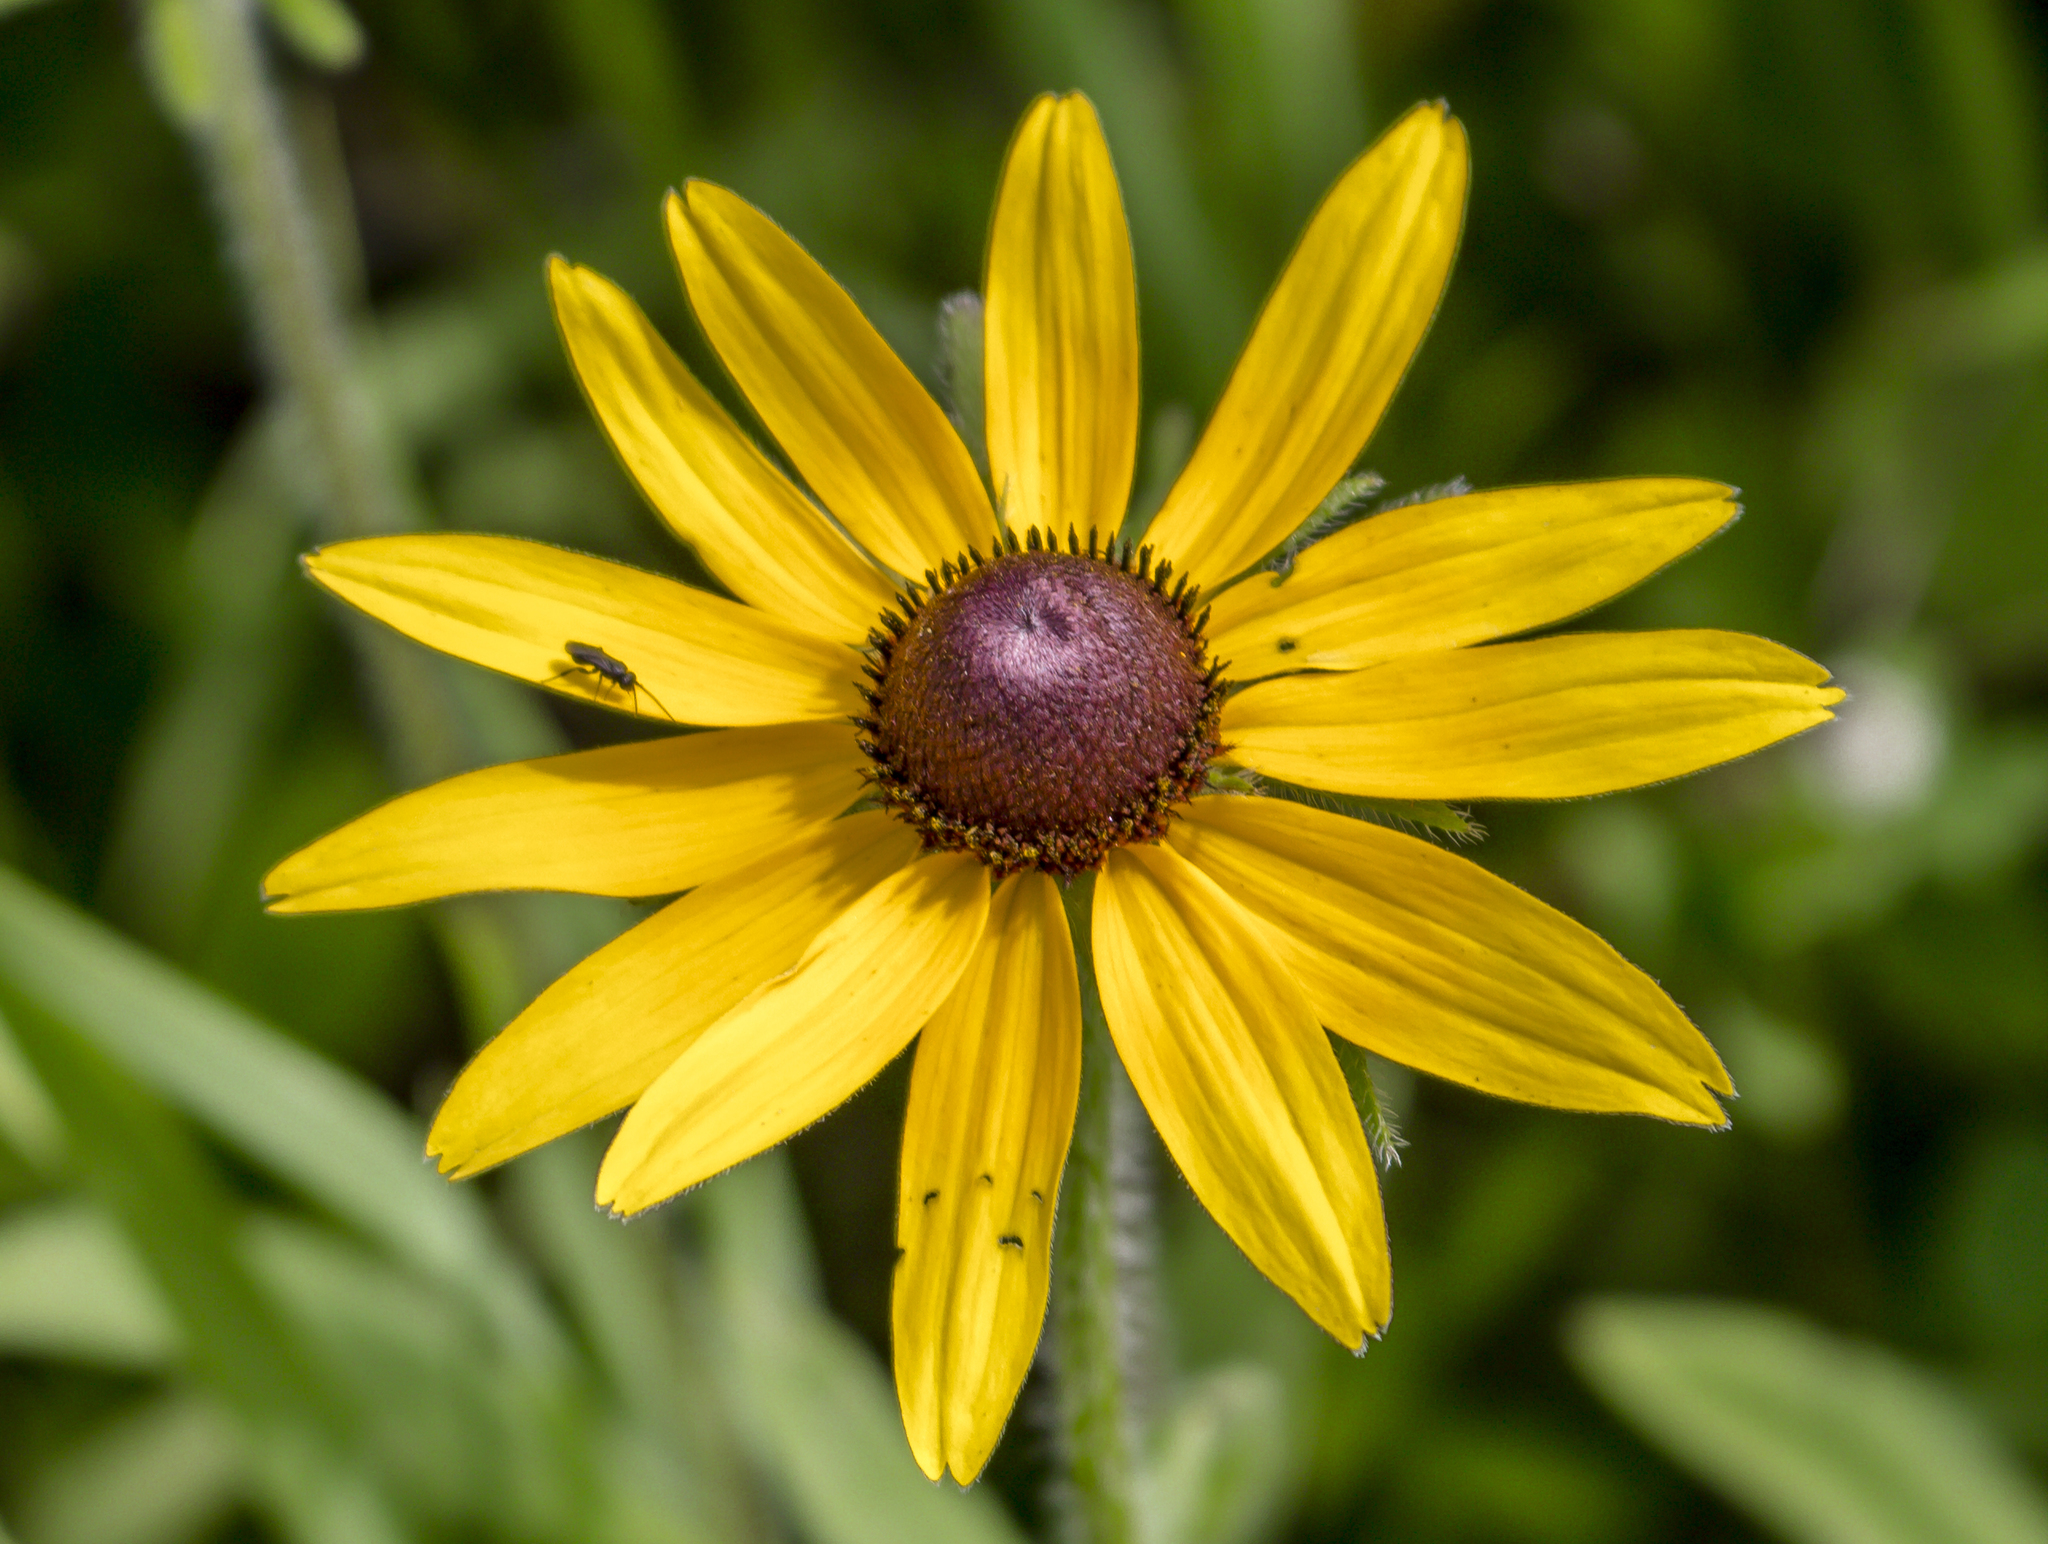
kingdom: Plantae
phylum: Tracheophyta
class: Magnoliopsida
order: Asterales
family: Asteraceae
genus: Rudbeckia
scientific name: Rudbeckia hirta
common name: Black-eyed-susan
